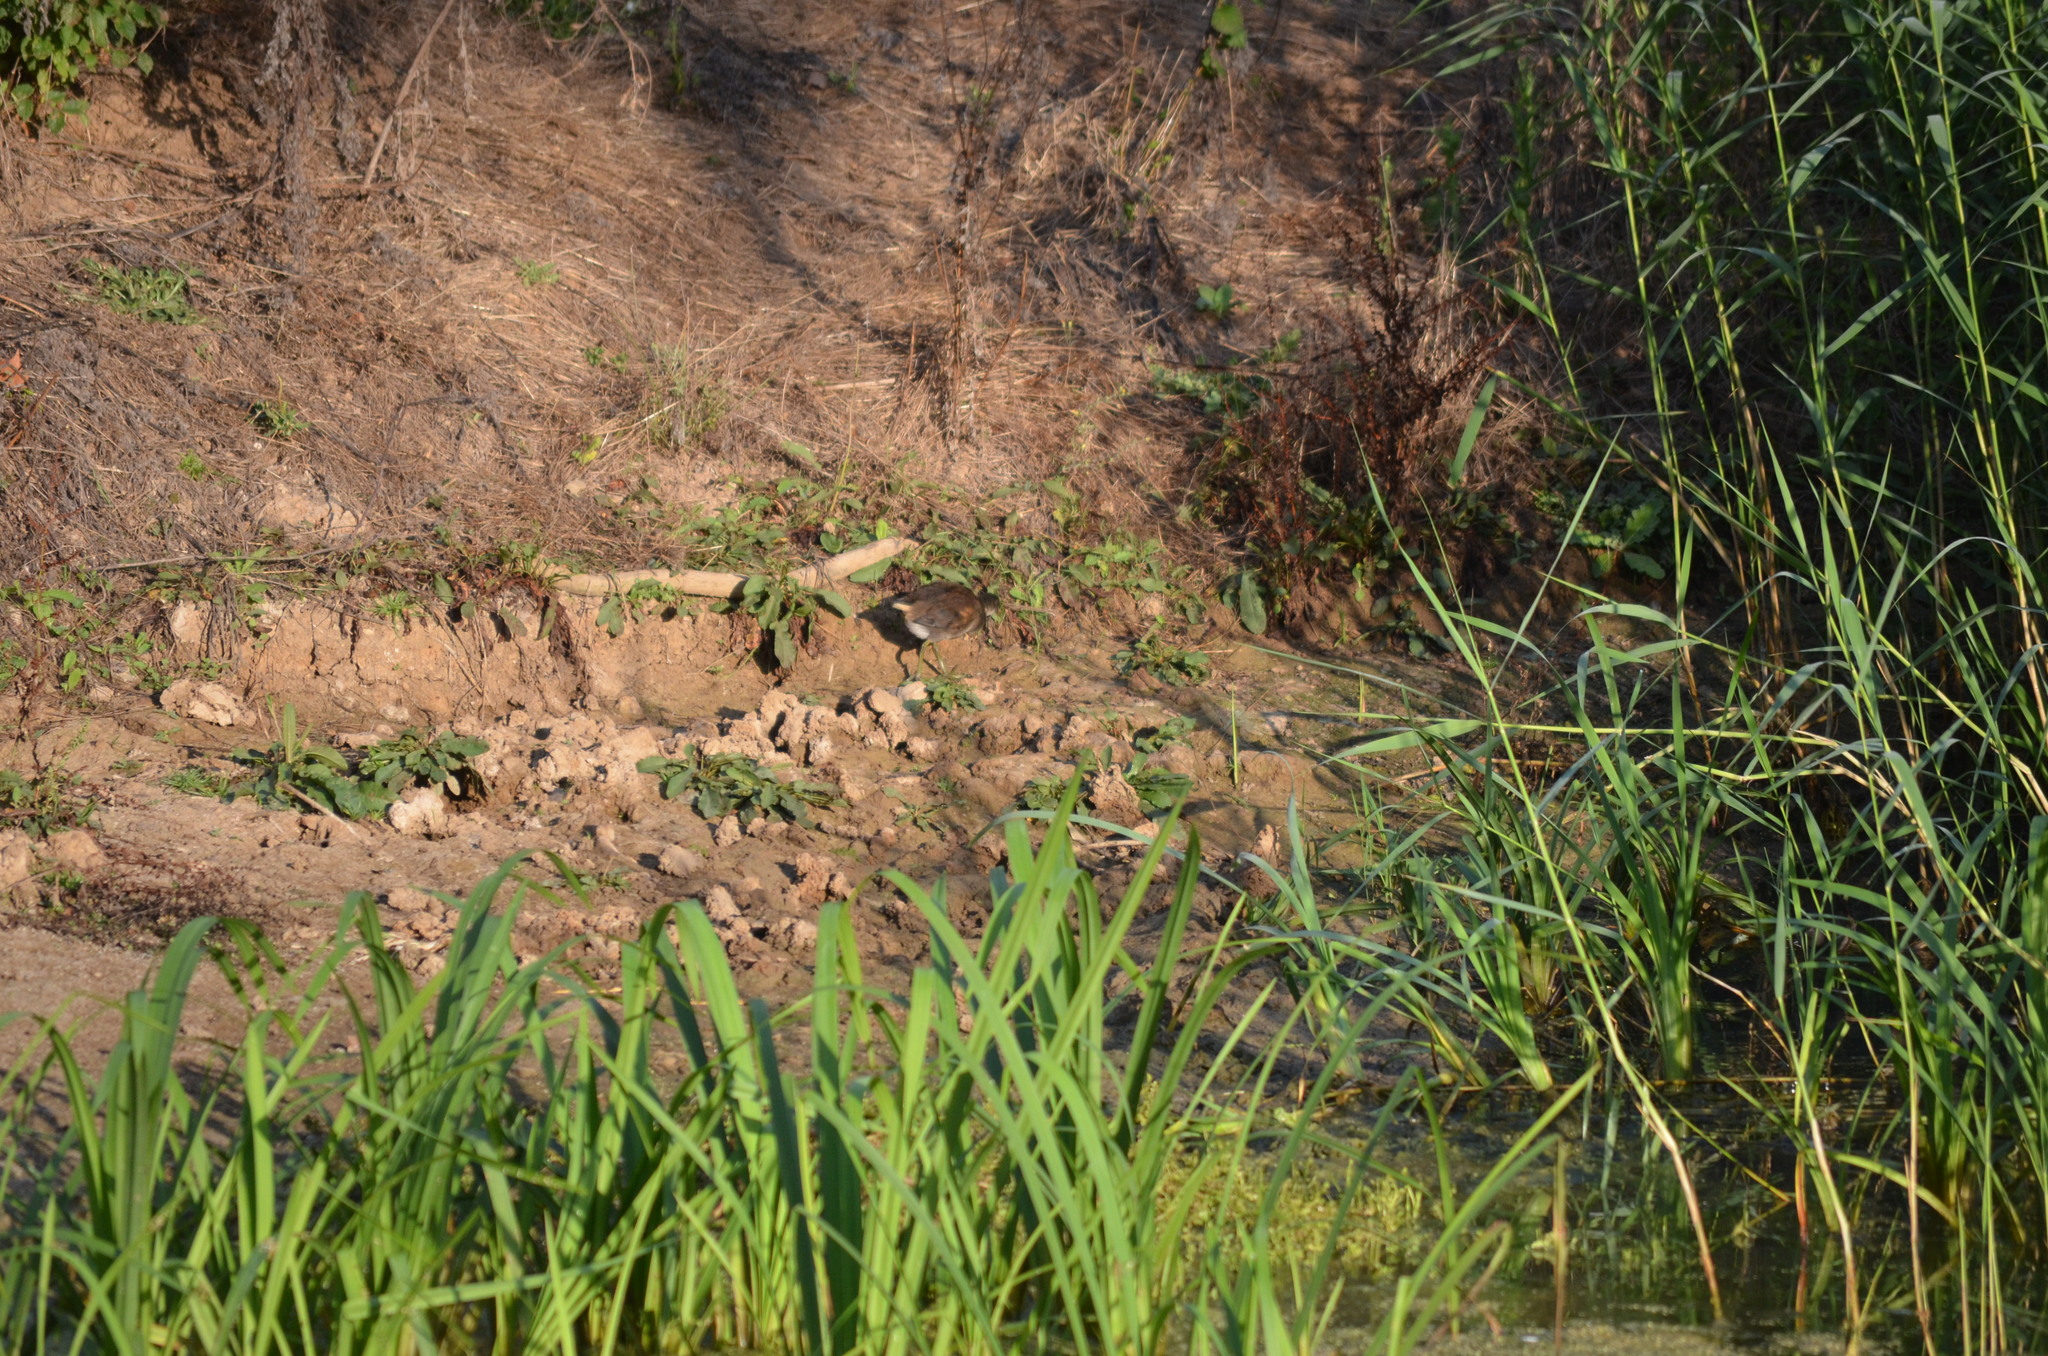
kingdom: Animalia
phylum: Chordata
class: Aves
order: Gruiformes
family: Rallidae
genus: Gallinula
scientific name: Gallinula chloropus
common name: Common moorhen
